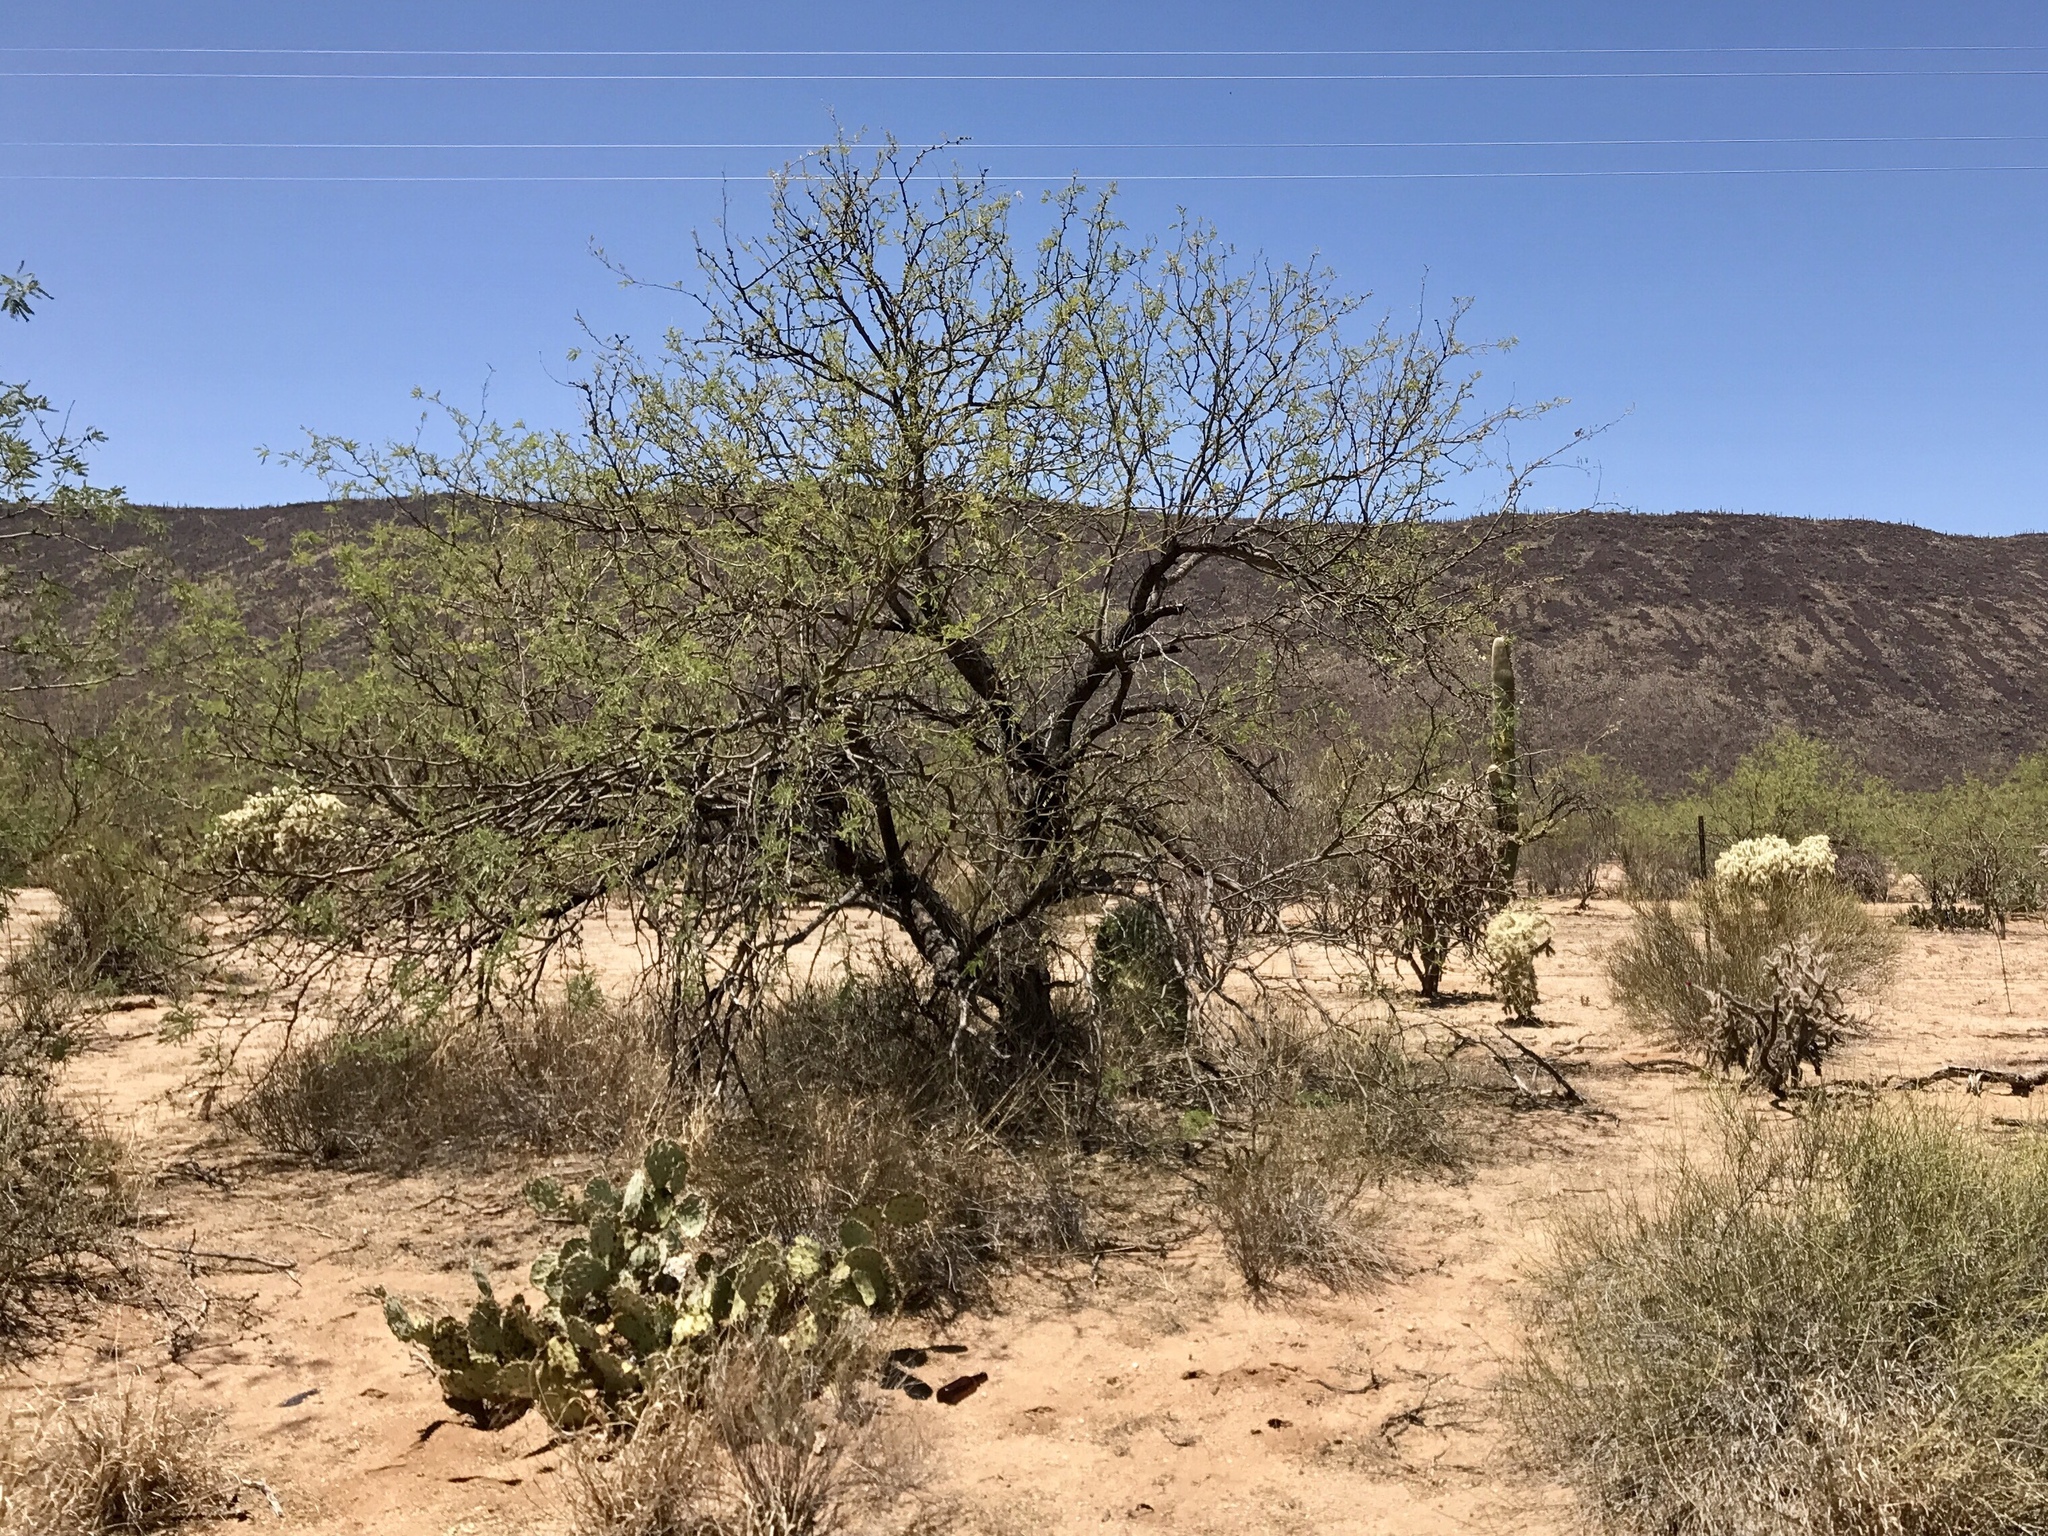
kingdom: Plantae
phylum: Tracheophyta
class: Magnoliopsida
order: Fabales
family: Fabaceae
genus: Prosopis
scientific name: Prosopis velutina
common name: Velvet mesquite
